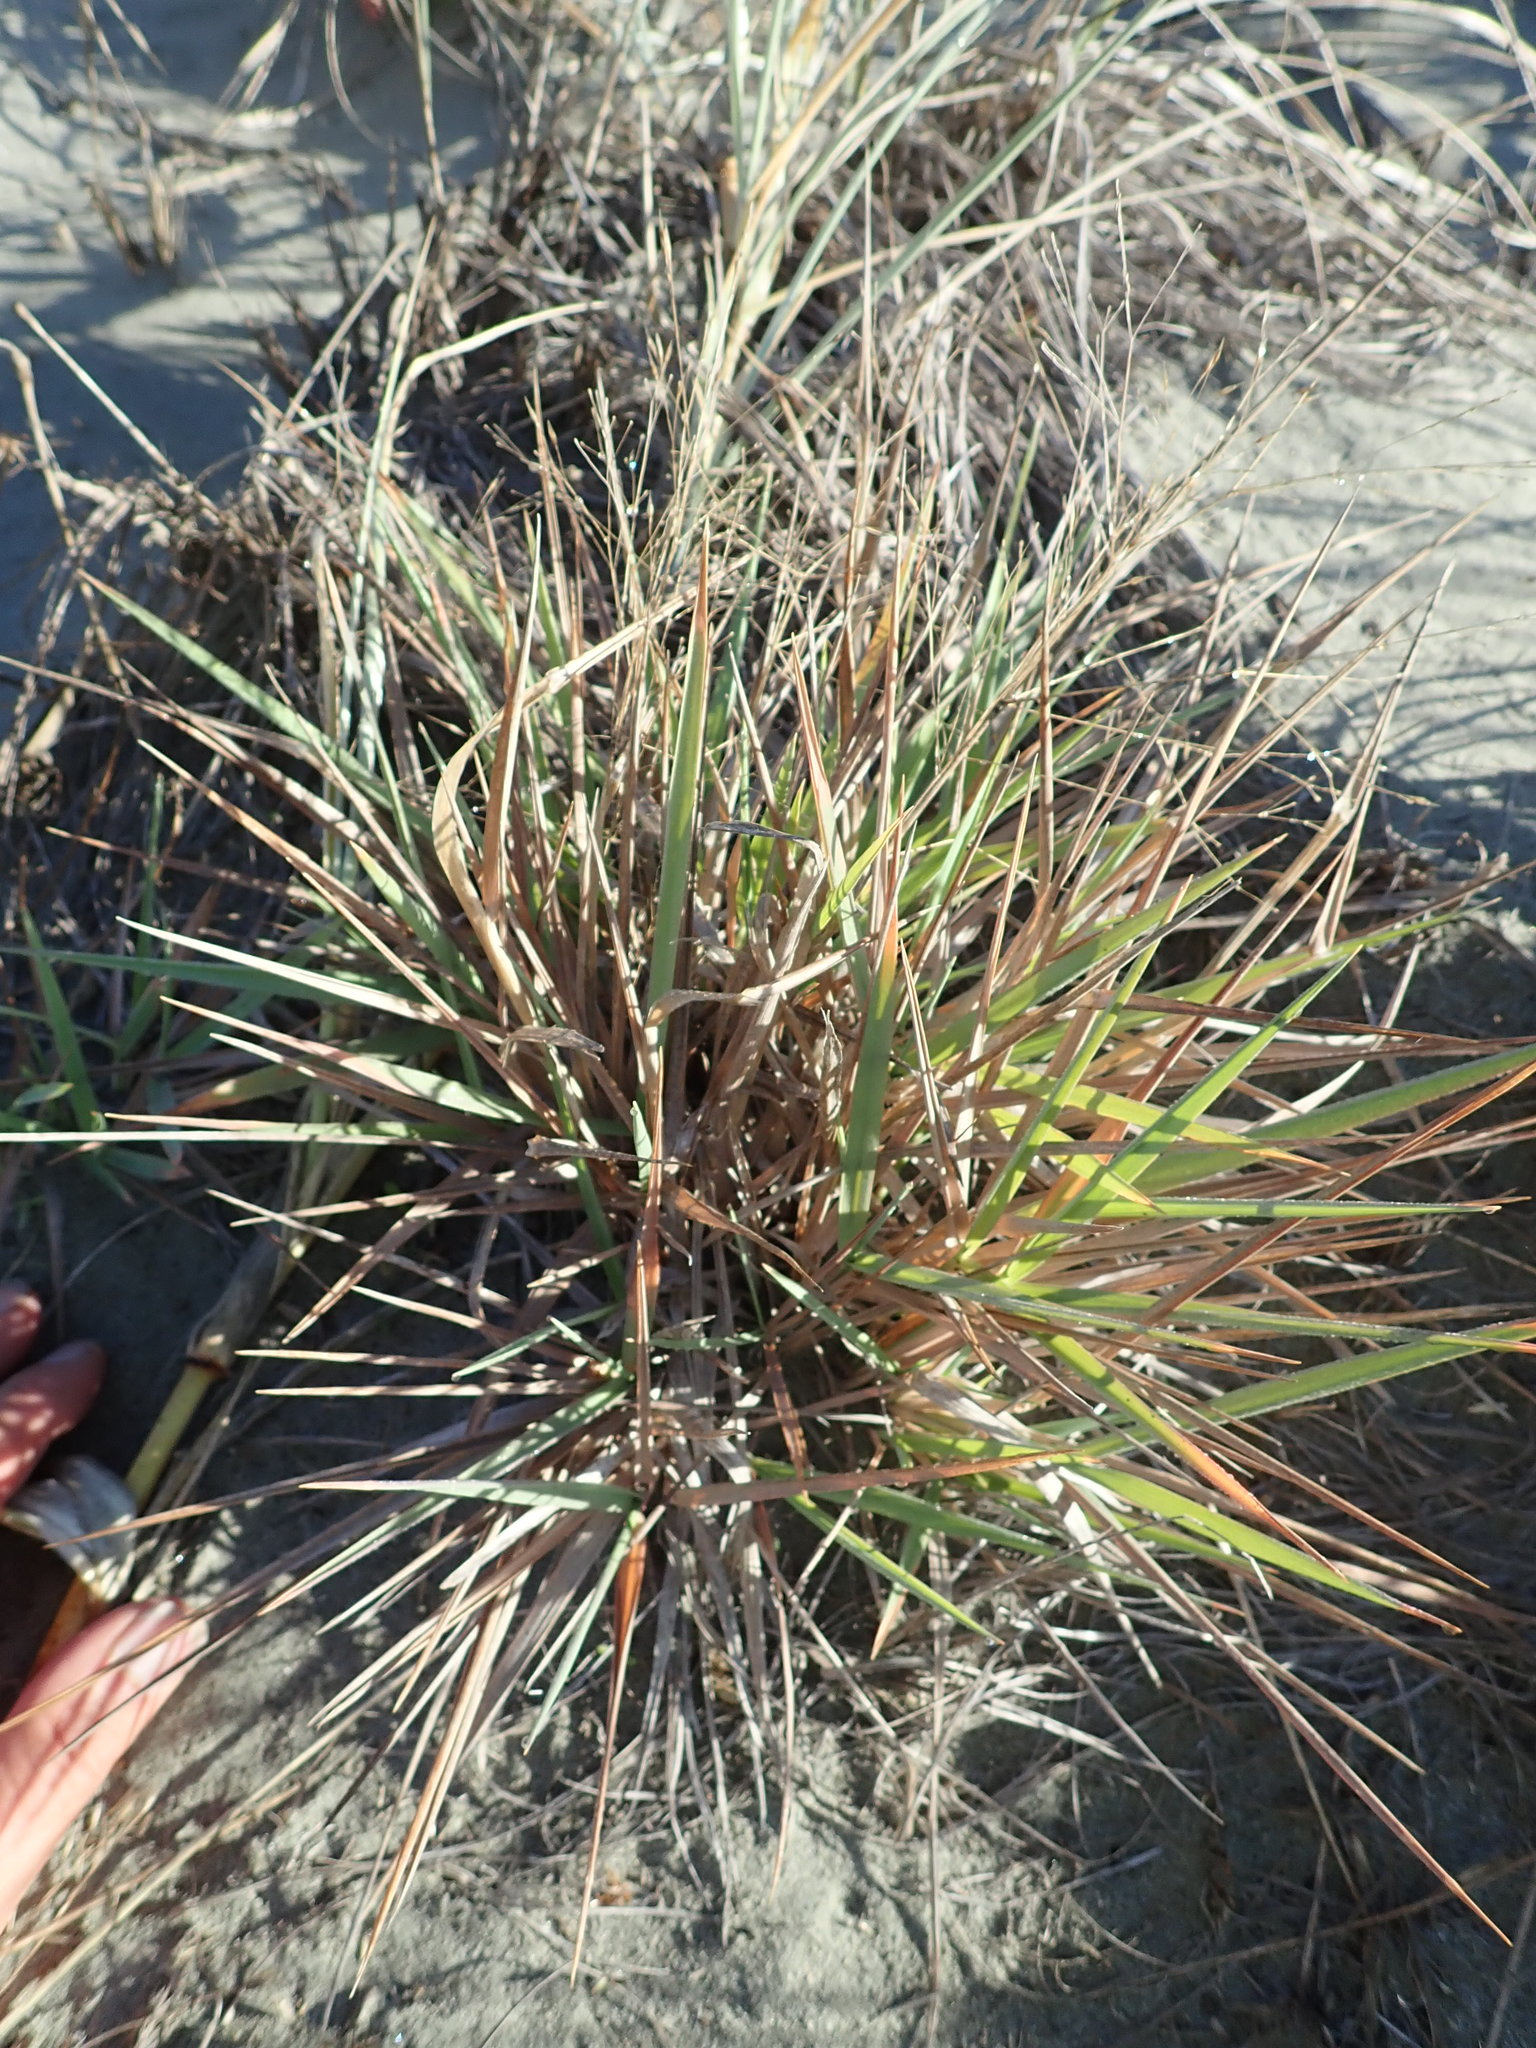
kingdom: Plantae
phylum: Tracheophyta
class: Liliopsida
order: Poales
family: Poaceae
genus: Lachnagrostis
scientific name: Lachnagrostis billardierei
